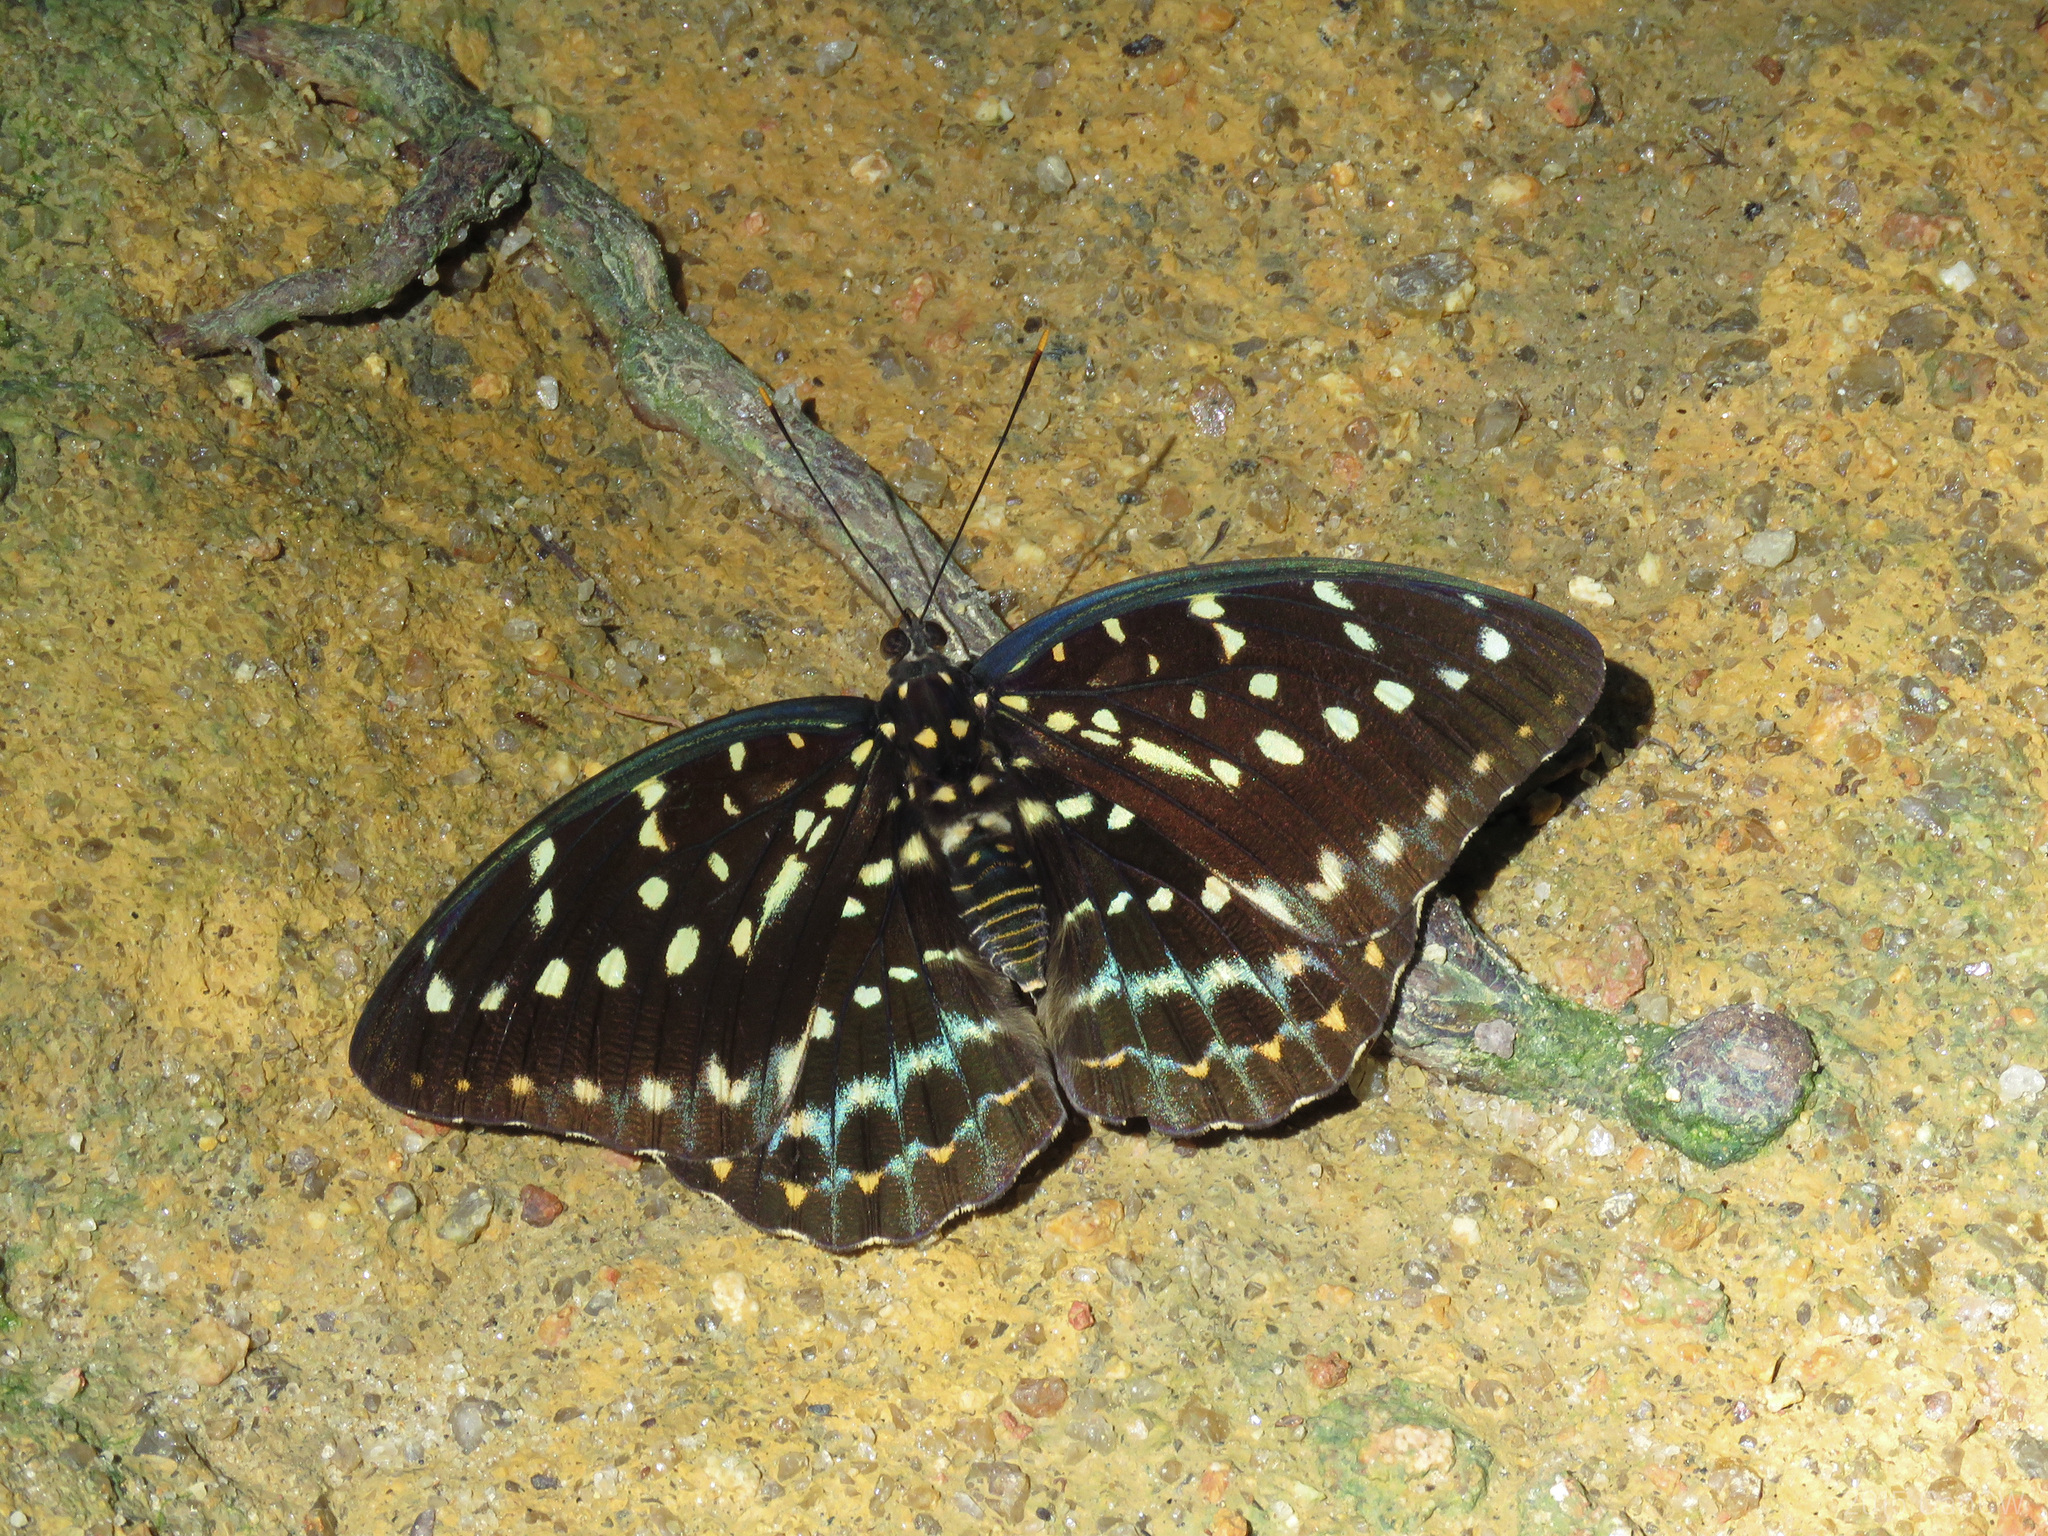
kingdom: Animalia
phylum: Arthropoda
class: Insecta
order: Lepidoptera
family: Nymphalidae
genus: Lexias
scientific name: Lexias pardalis
